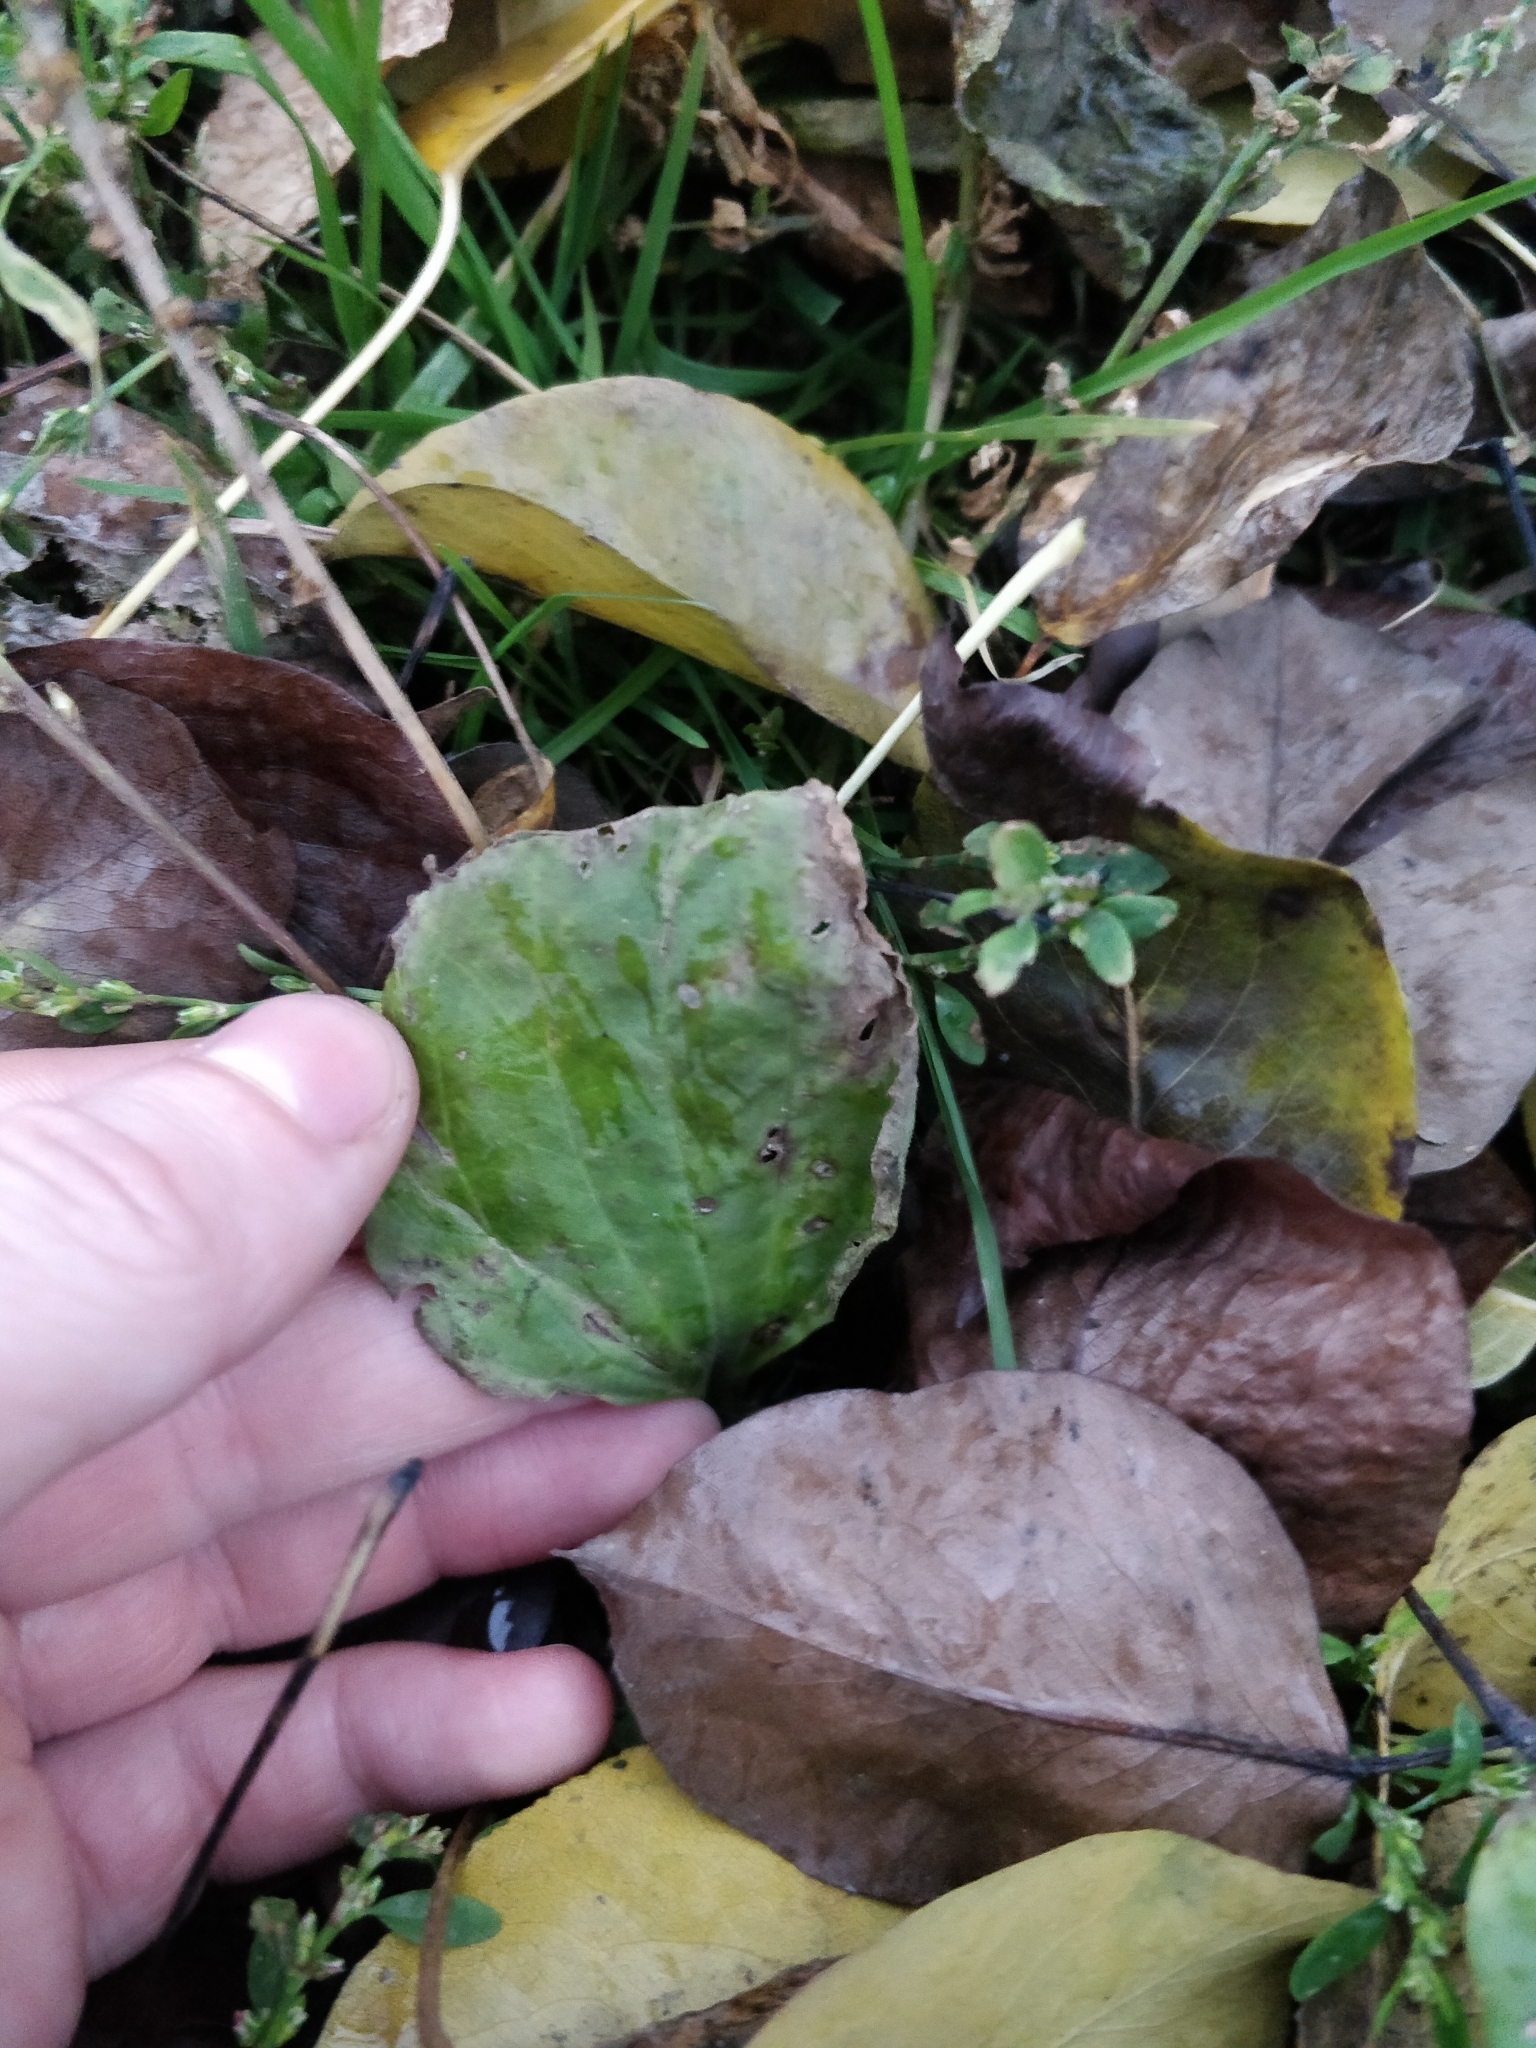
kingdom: Plantae
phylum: Tracheophyta
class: Magnoliopsida
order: Lamiales
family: Plantaginaceae
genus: Plantago
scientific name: Plantago major
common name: Common plantain
